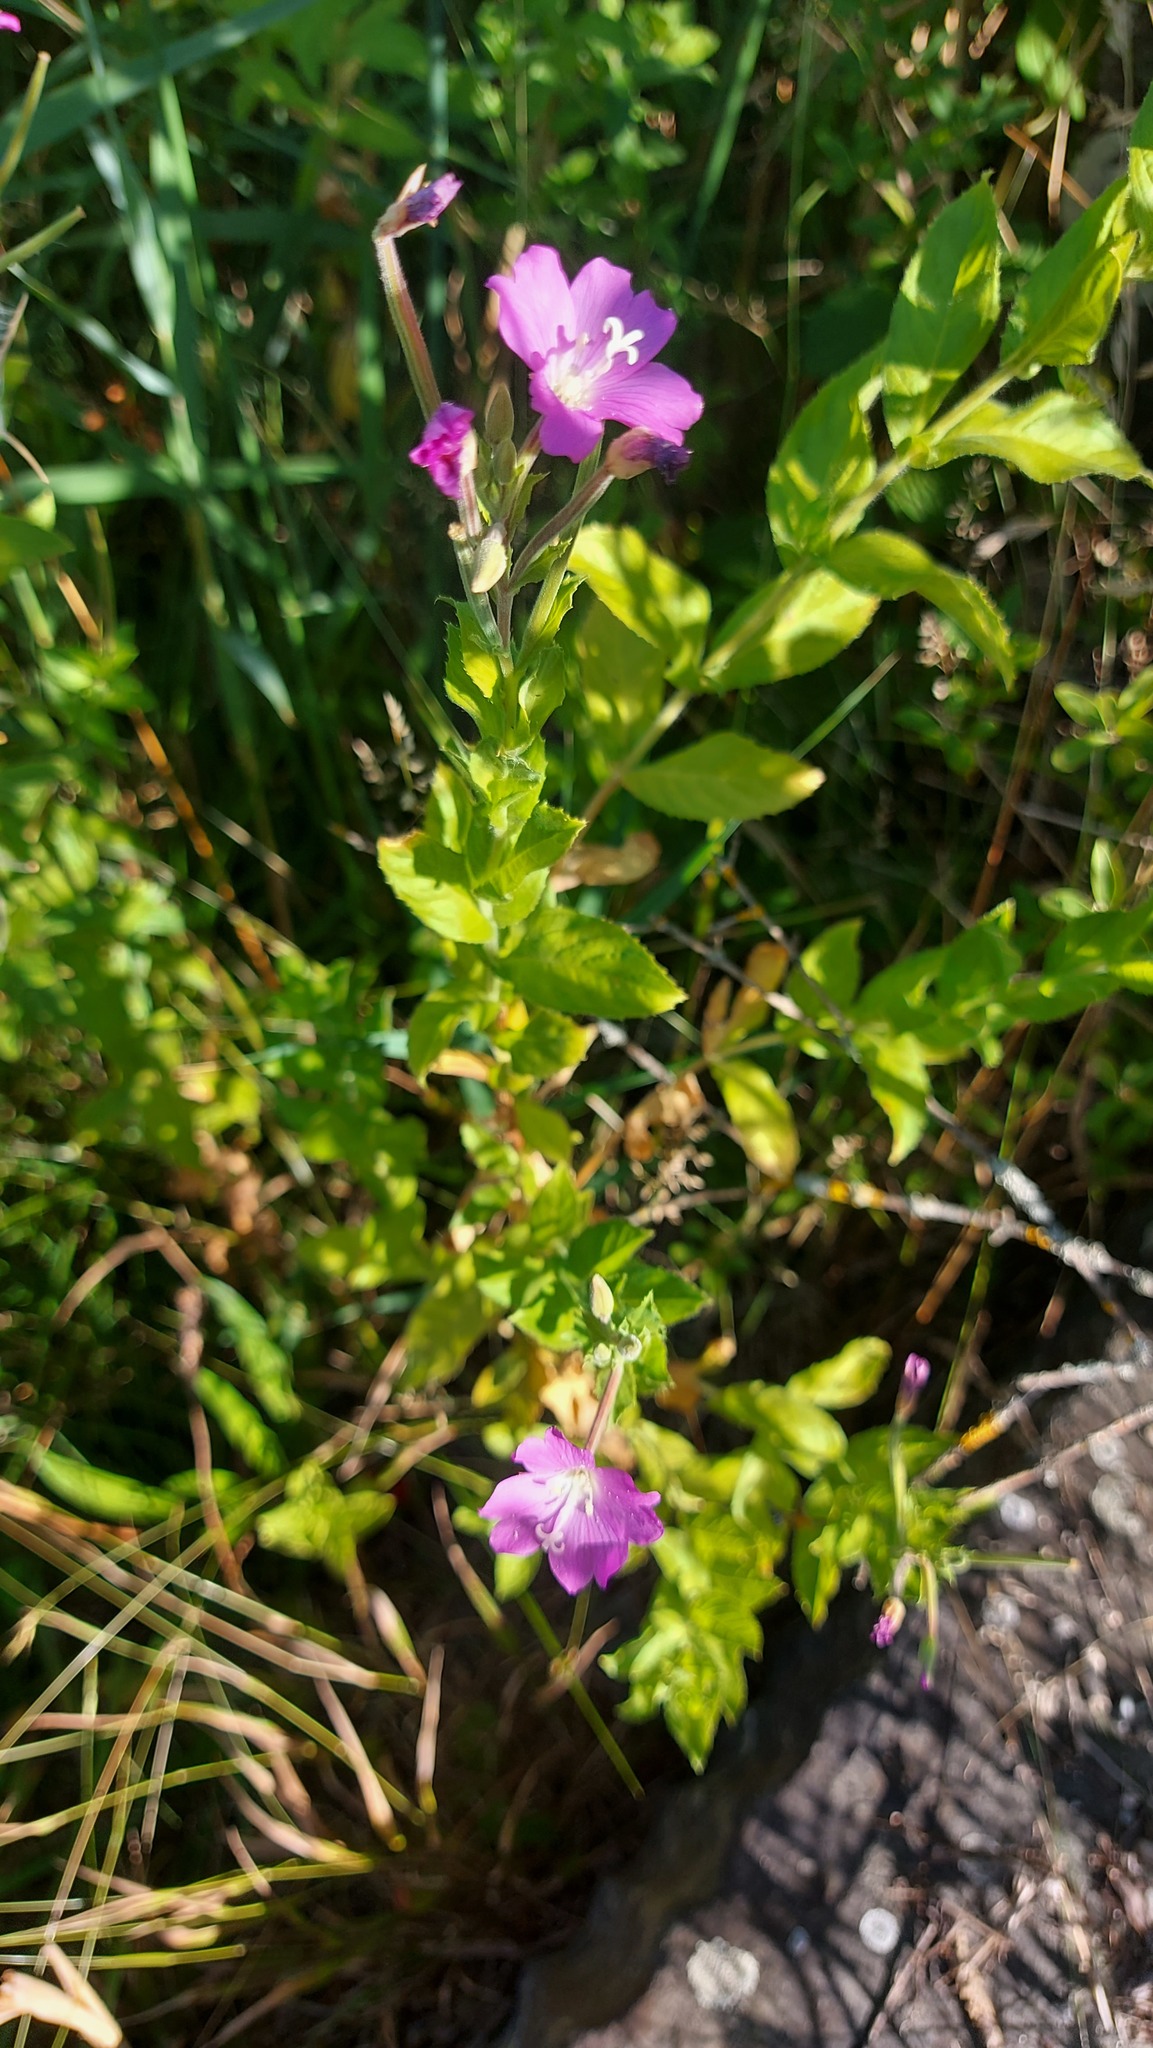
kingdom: Plantae
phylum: Tracheophyta
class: Magnoliopsida
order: Myrtales
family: Onagraceae
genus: Epilobium
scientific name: Epilobium hirsutum
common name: Great willowherb
